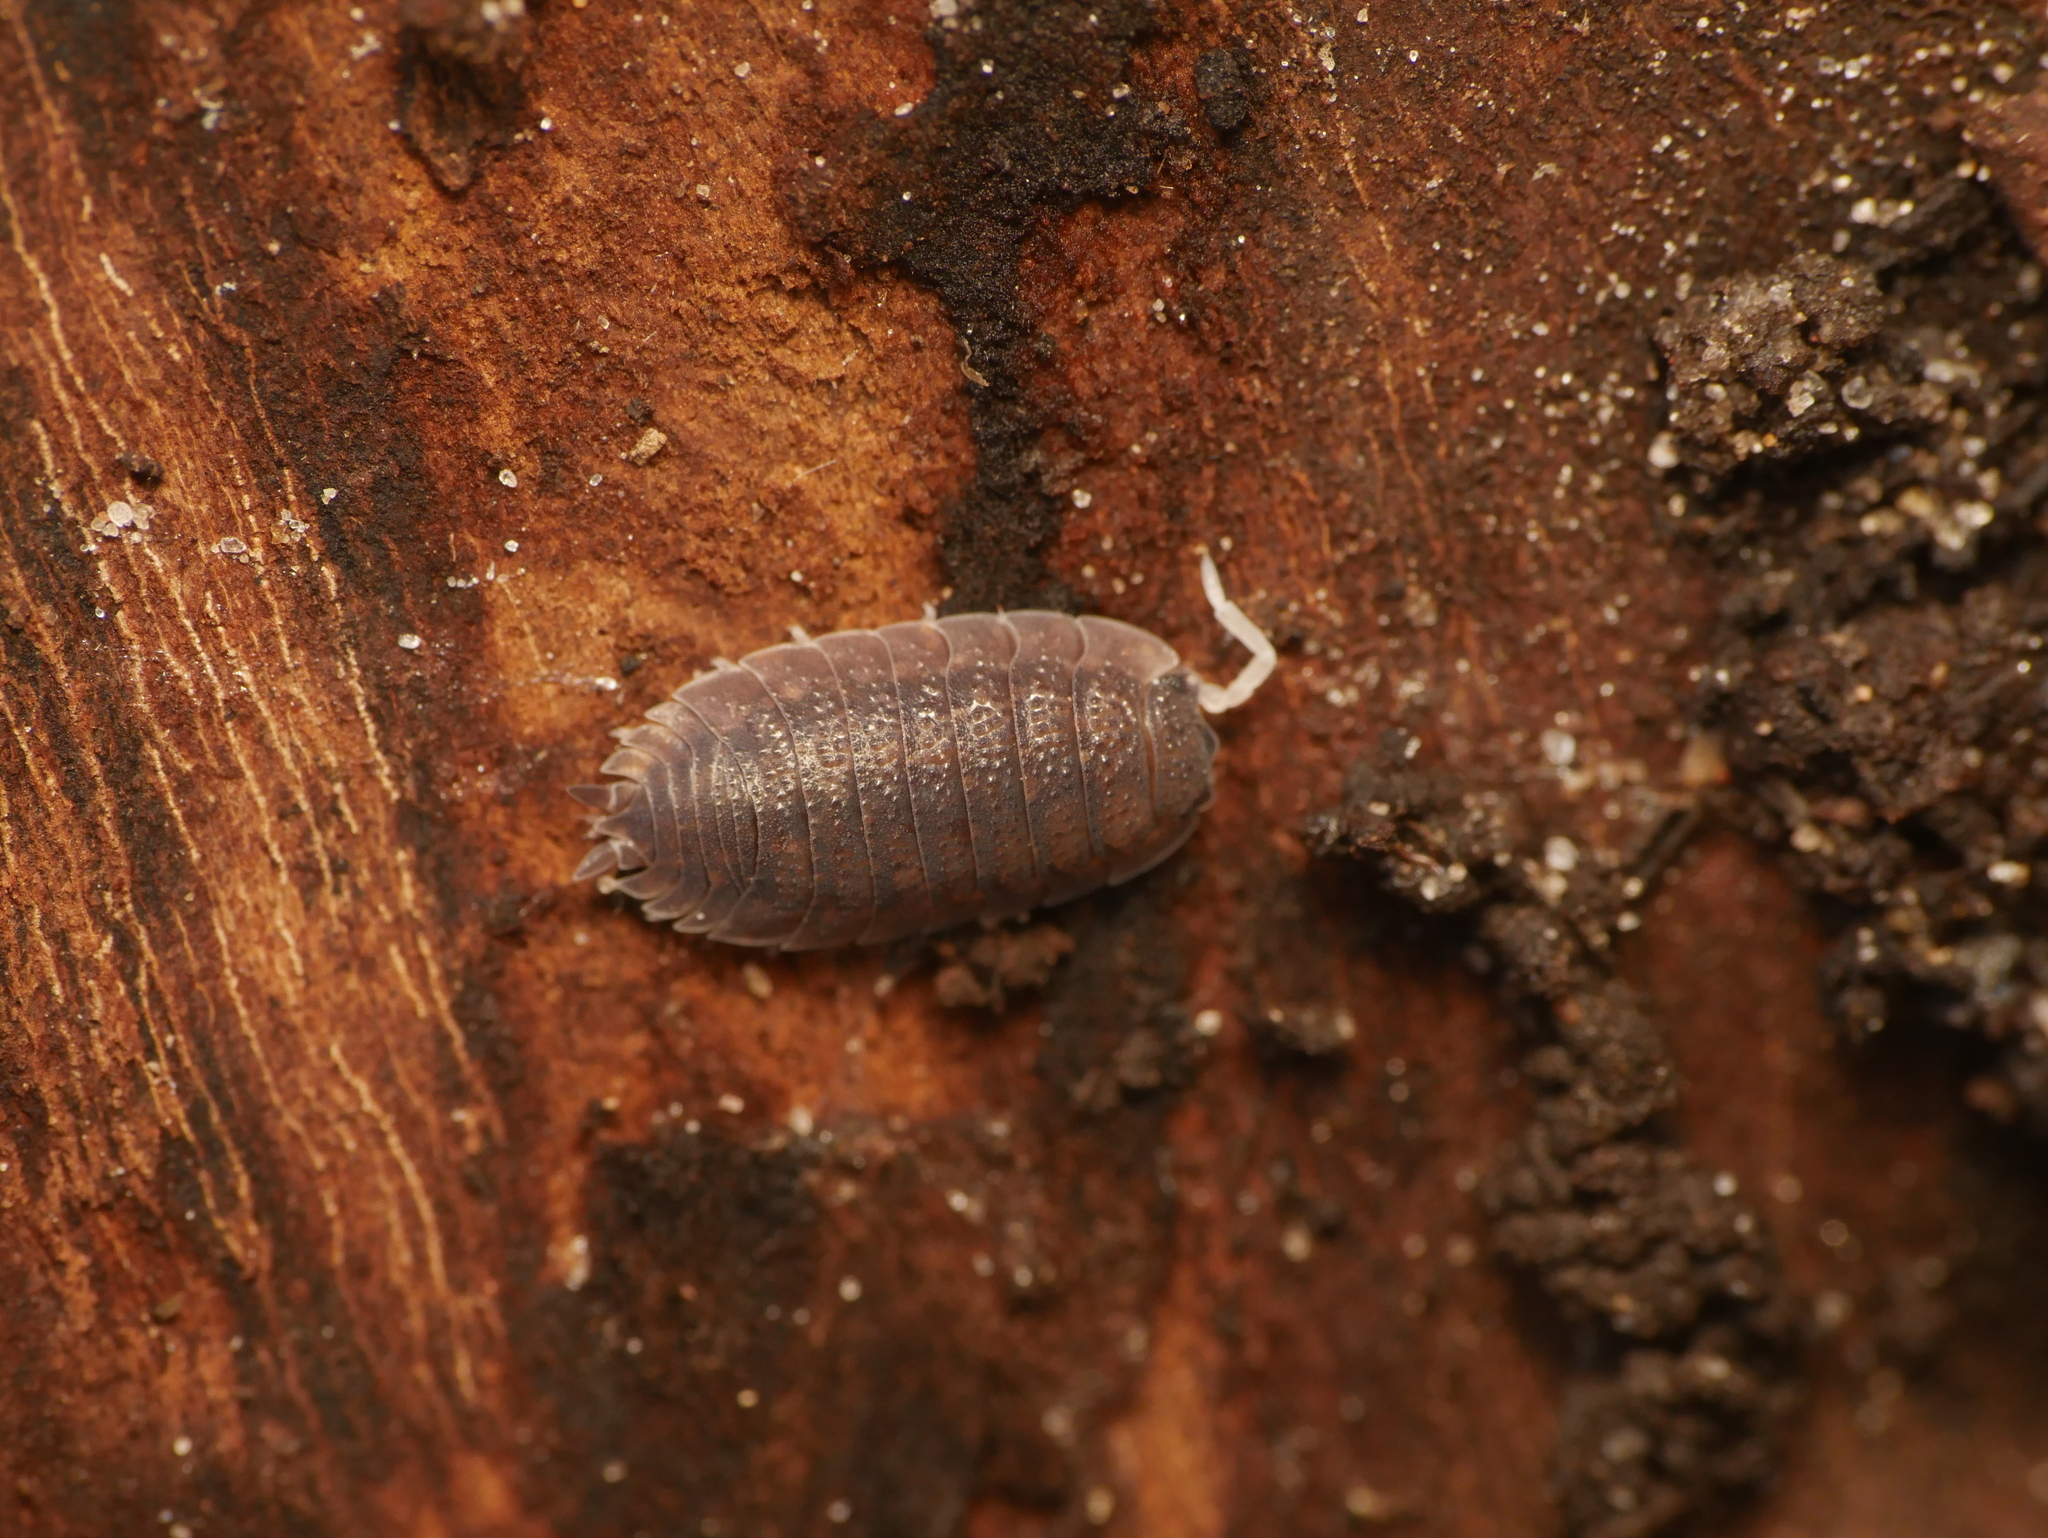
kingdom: Animalia
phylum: Arthropoda
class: Malacostraca
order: Isopoda
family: Porcellionidae
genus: Porcellio
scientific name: Porcellio scaber
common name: Common rough woodlouse
